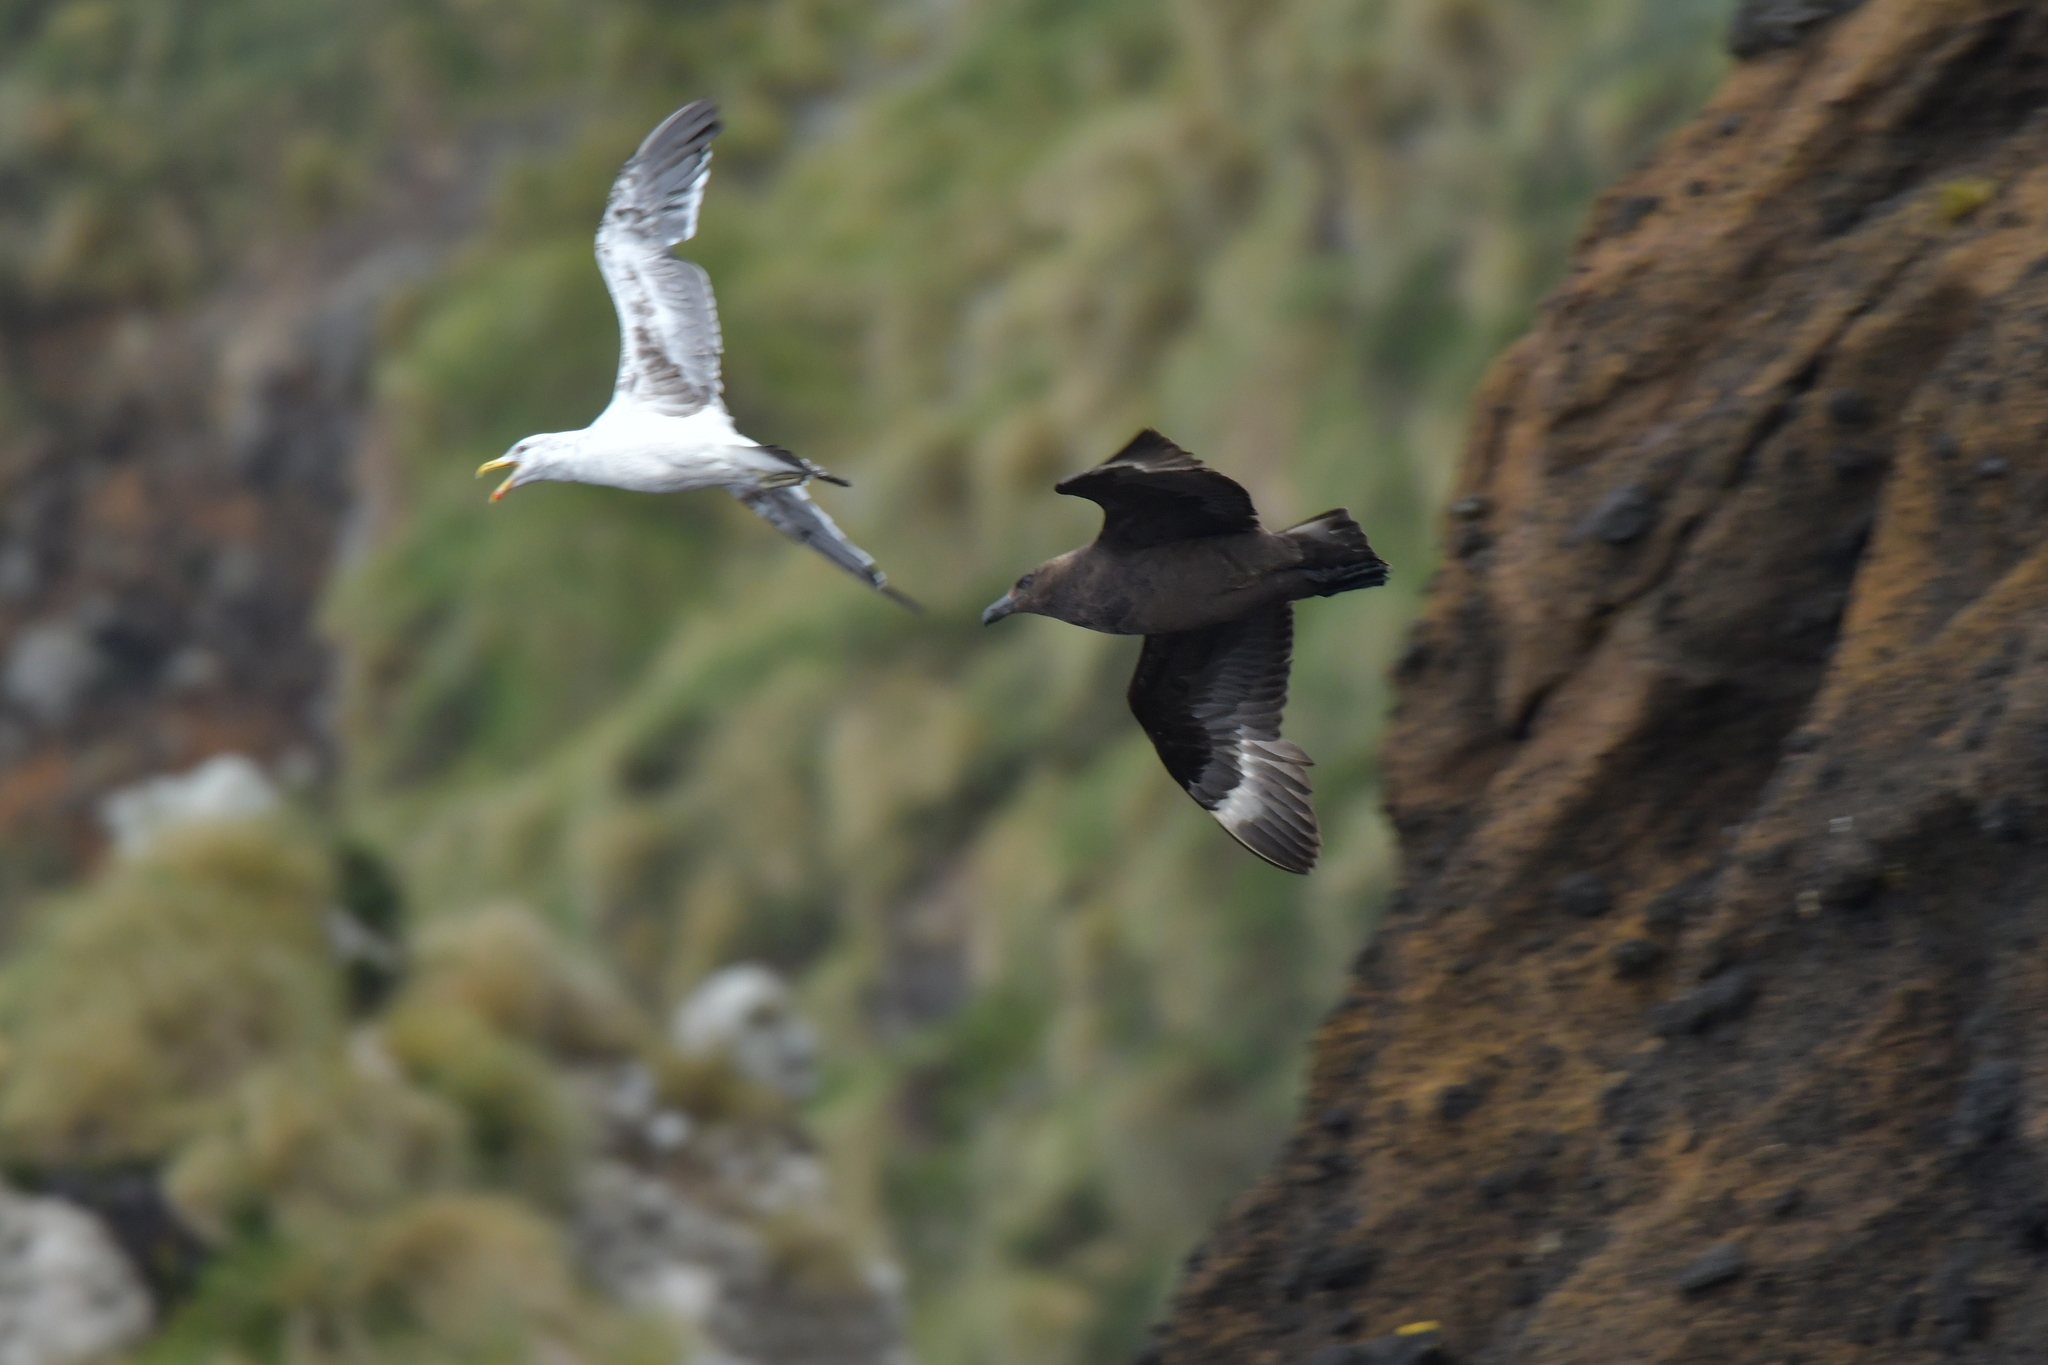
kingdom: Animalia
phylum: Chordata
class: Aves
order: Charadriiformes
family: Stercorariidae
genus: Stercorarius
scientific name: Stercorarius antarcticus
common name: Brown skua
